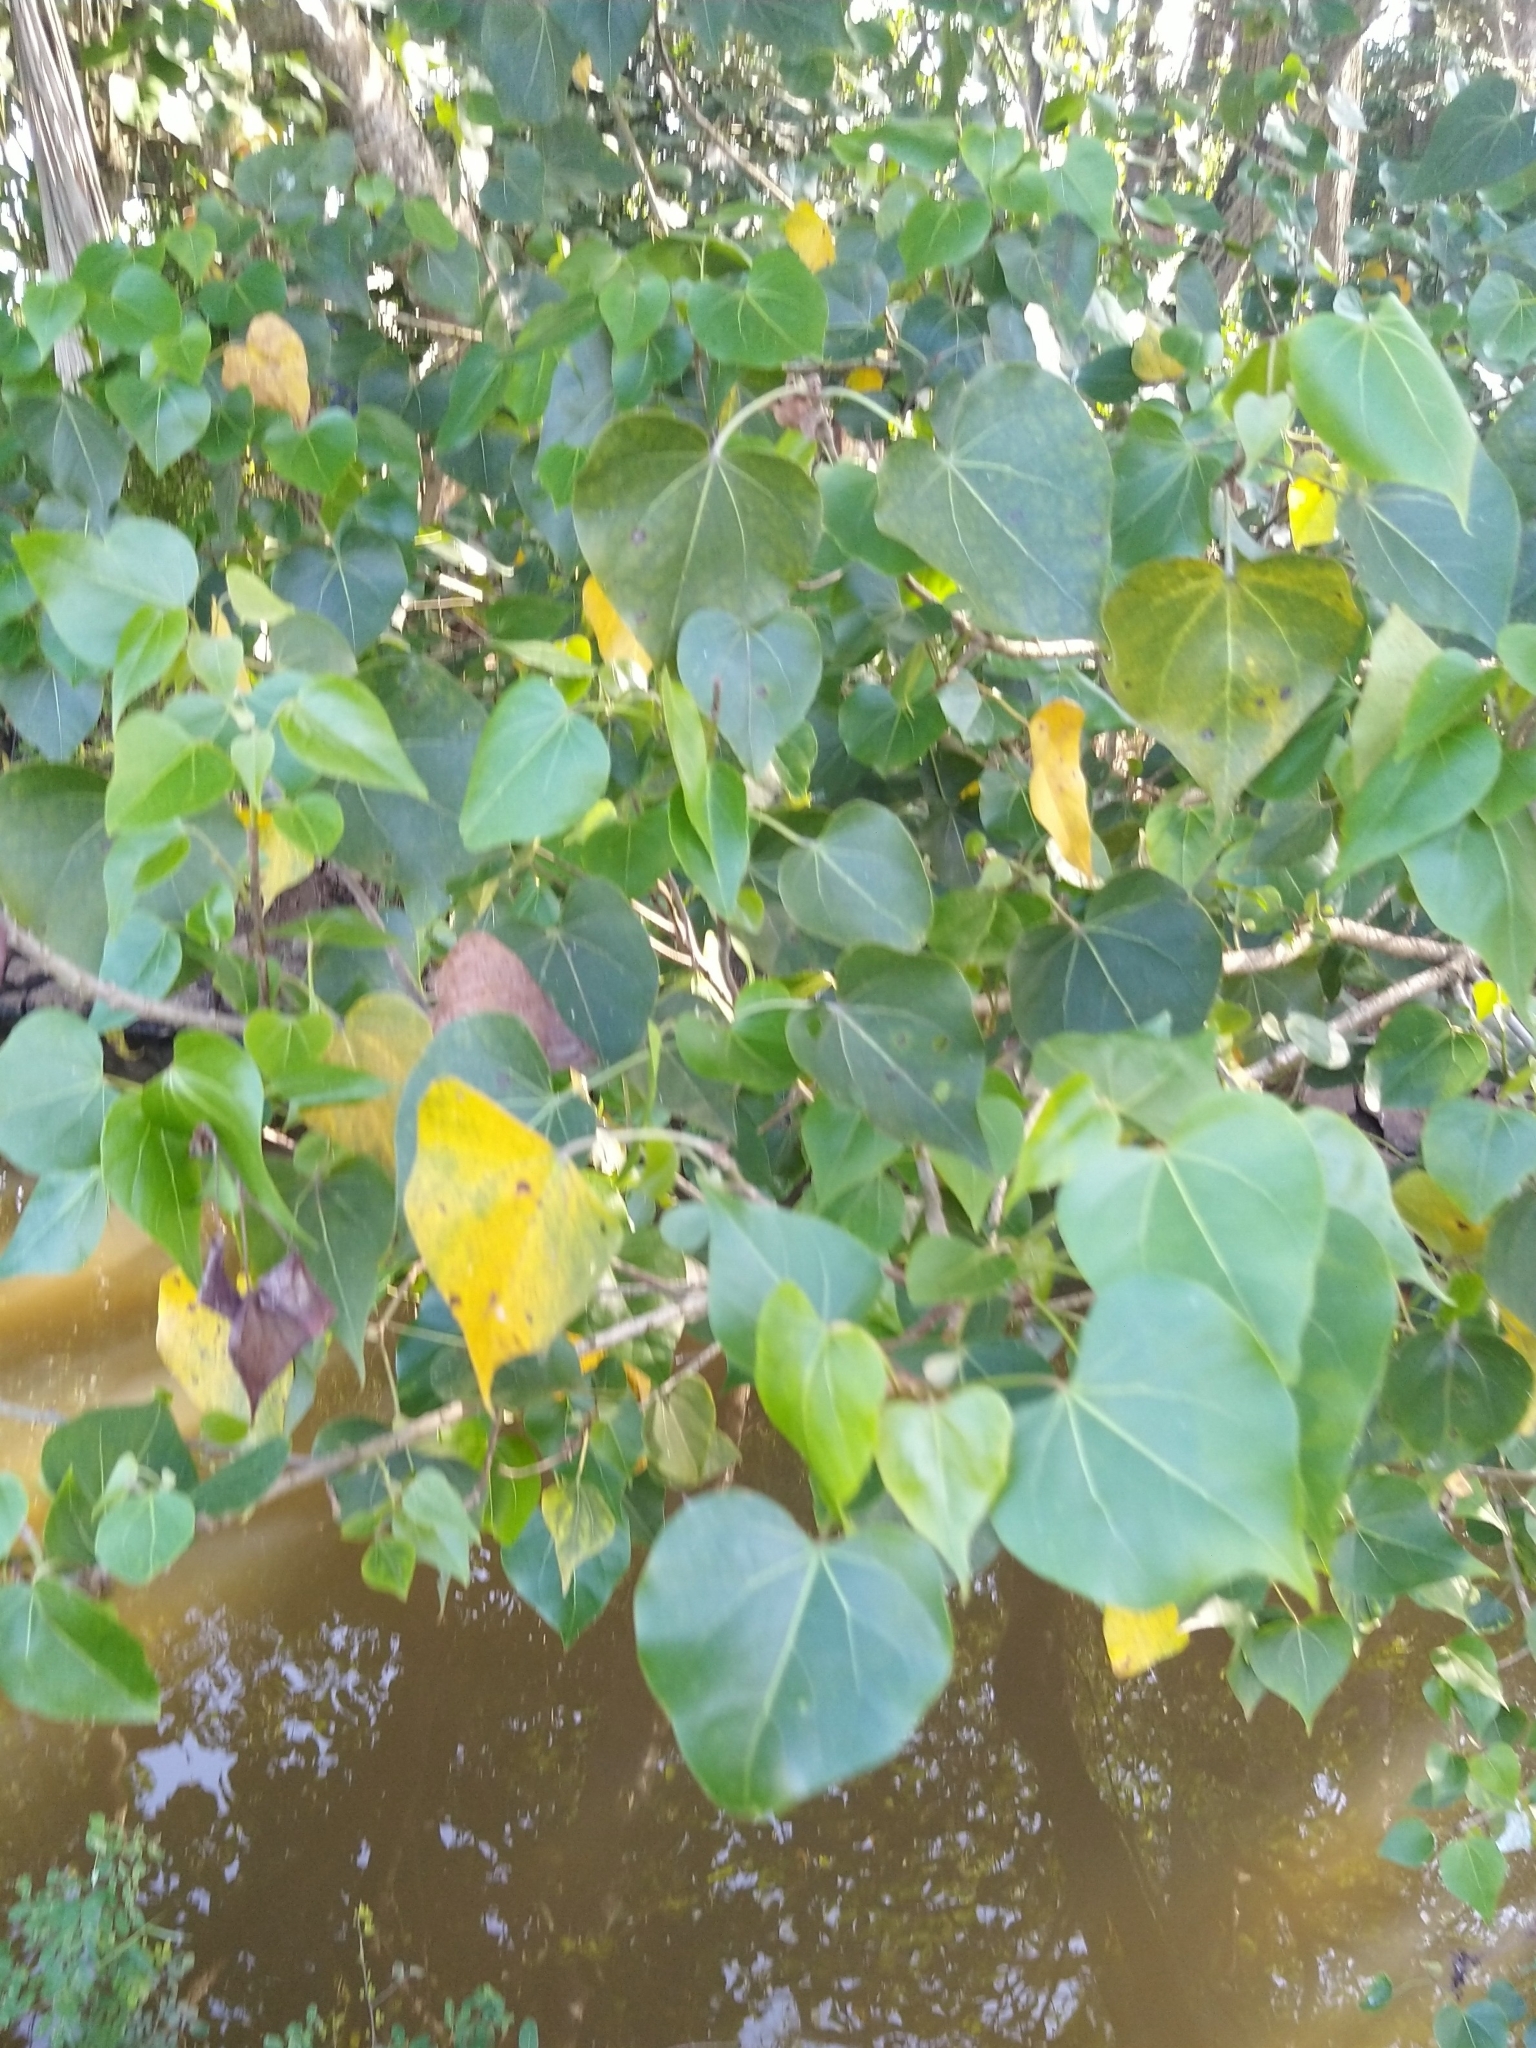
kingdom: Plantae
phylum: Tracheophyta
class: Magnoliopsida
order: Malvales
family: Malvaceae
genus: Thespesia
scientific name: Thespesia populnea
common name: Seaside mahoe
